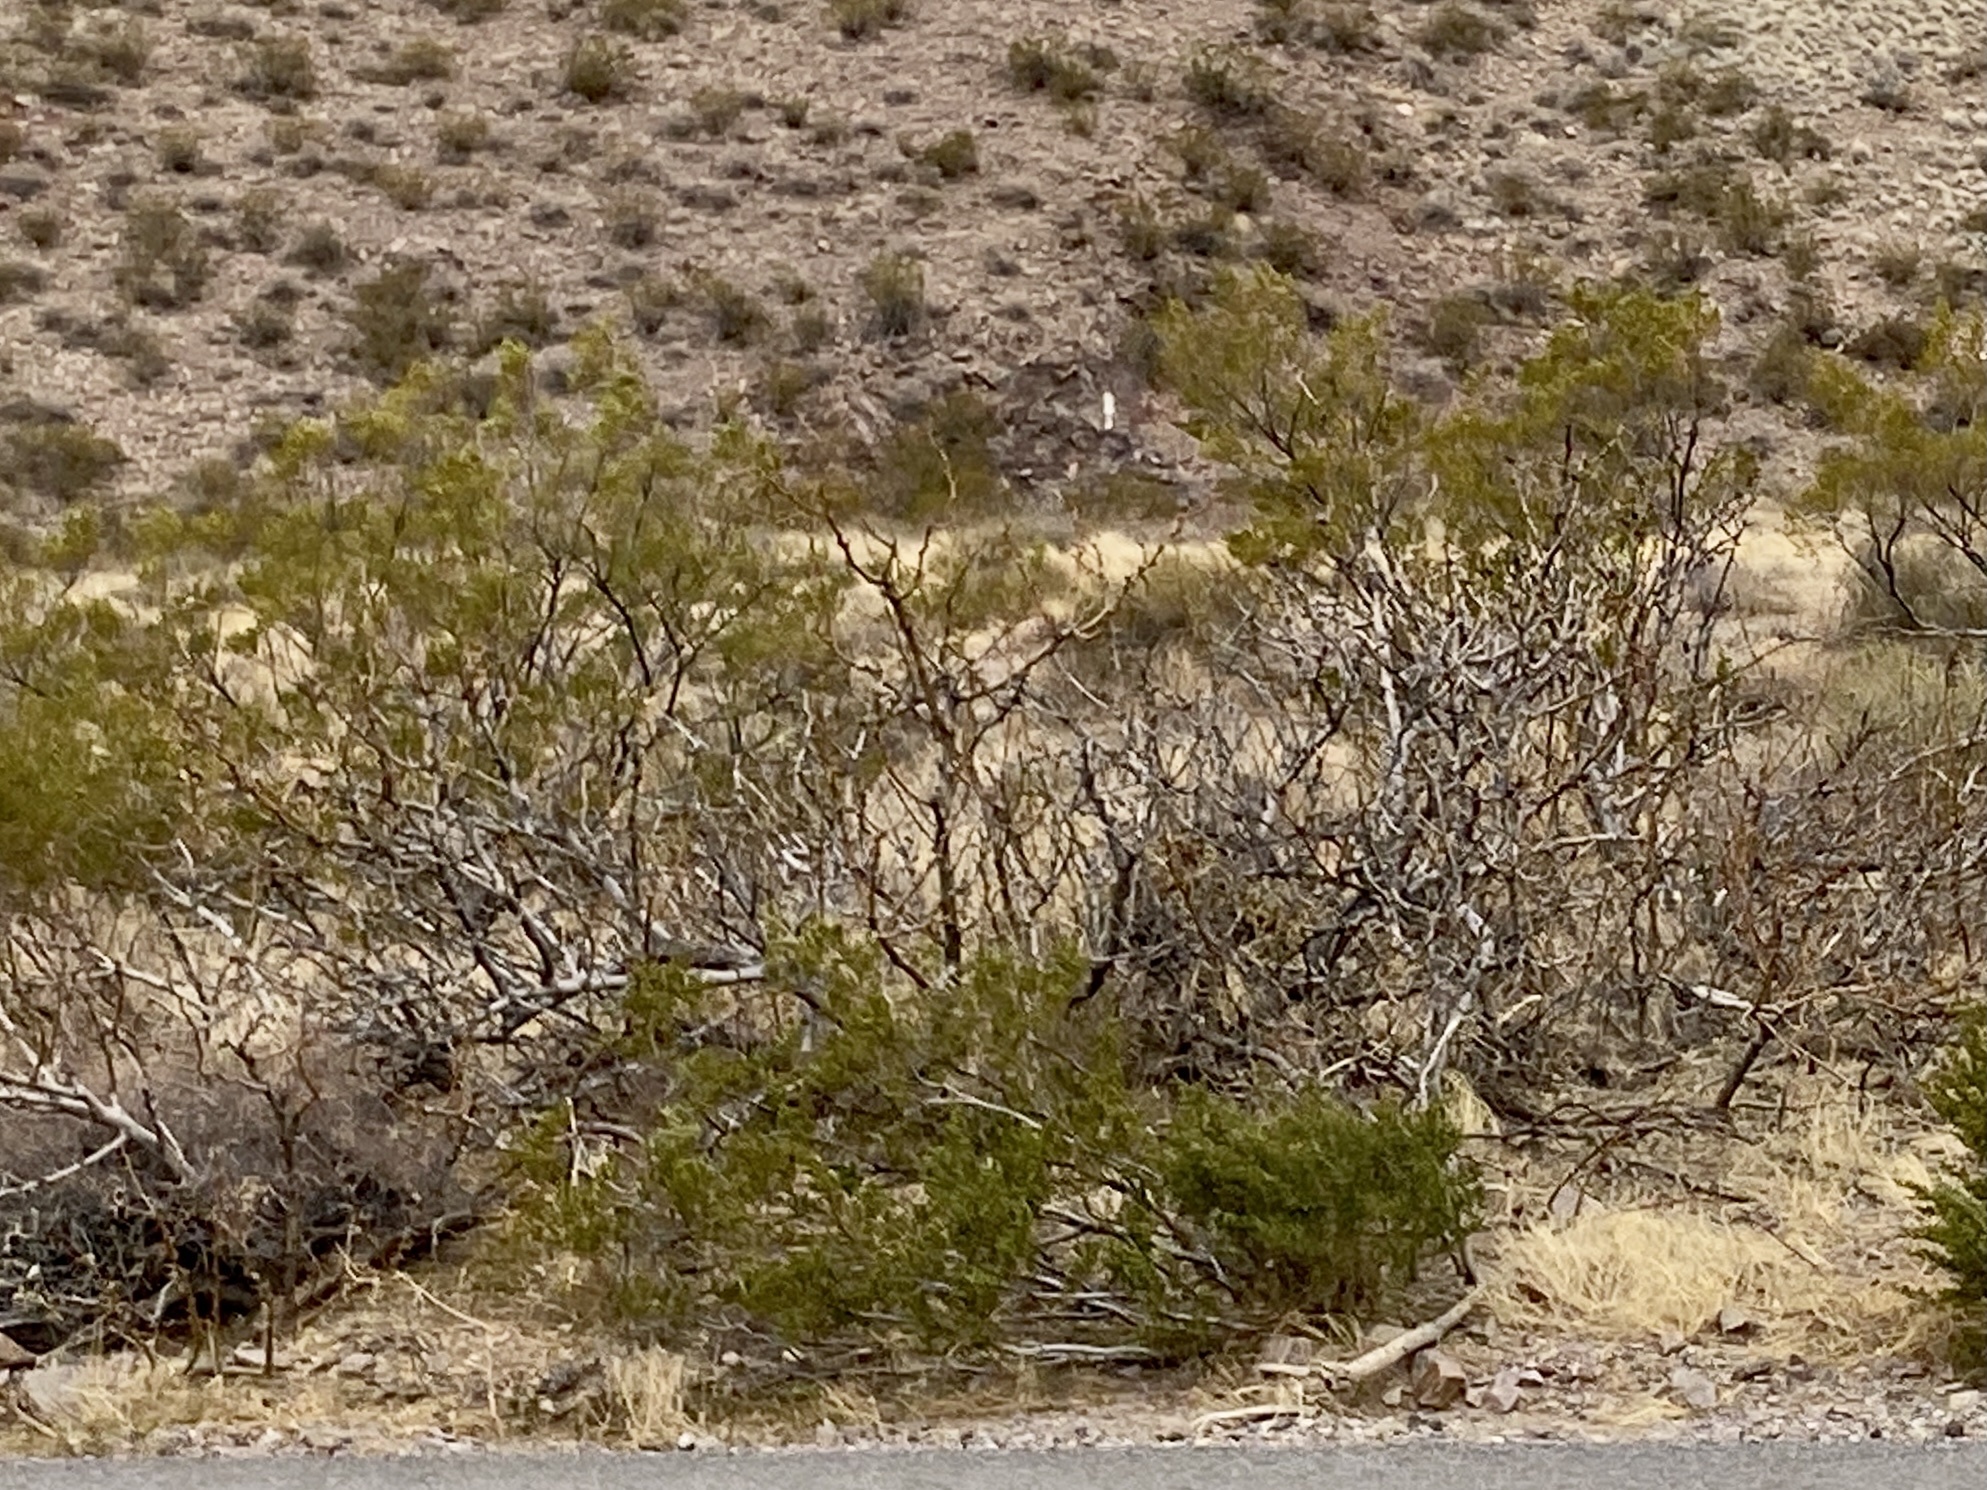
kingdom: Plantae
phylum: Tracheophyta
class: Magnoliopsida
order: Zygophyllales
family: Zygophyllaceae
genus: Larrea
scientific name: Larrea tridentata
